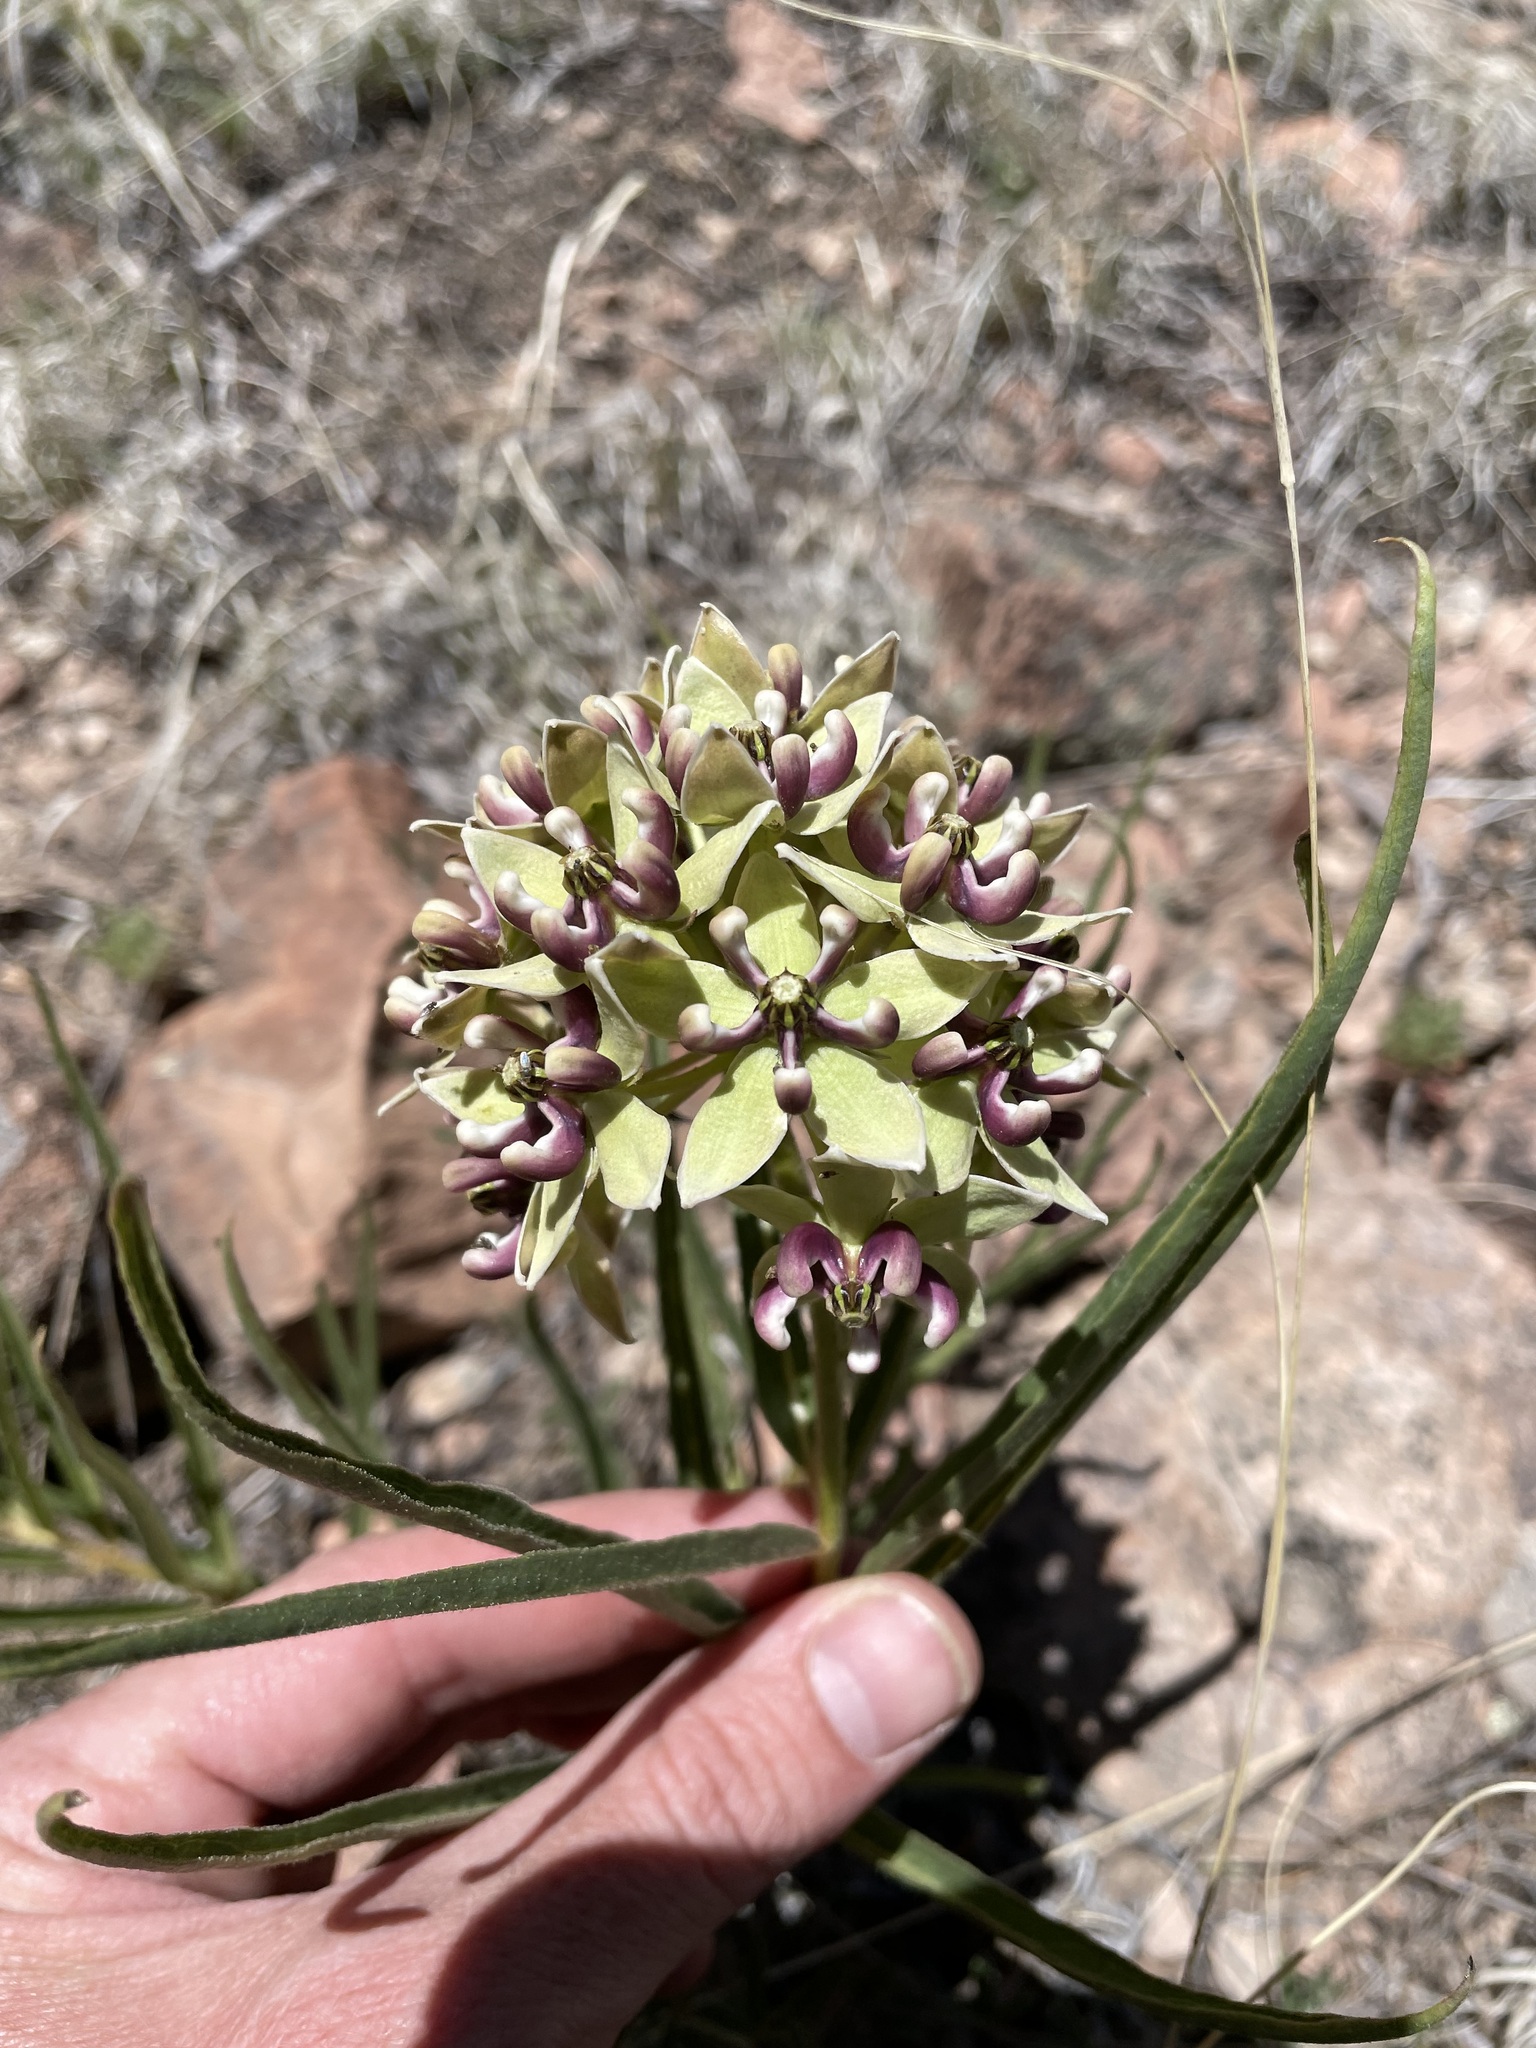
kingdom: Plantae
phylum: Tracheophyta
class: Magnoliopsida
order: Gentianales
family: Apocynaceae
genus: Asclepias
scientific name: Asclepias asperula
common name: Antelope horns
